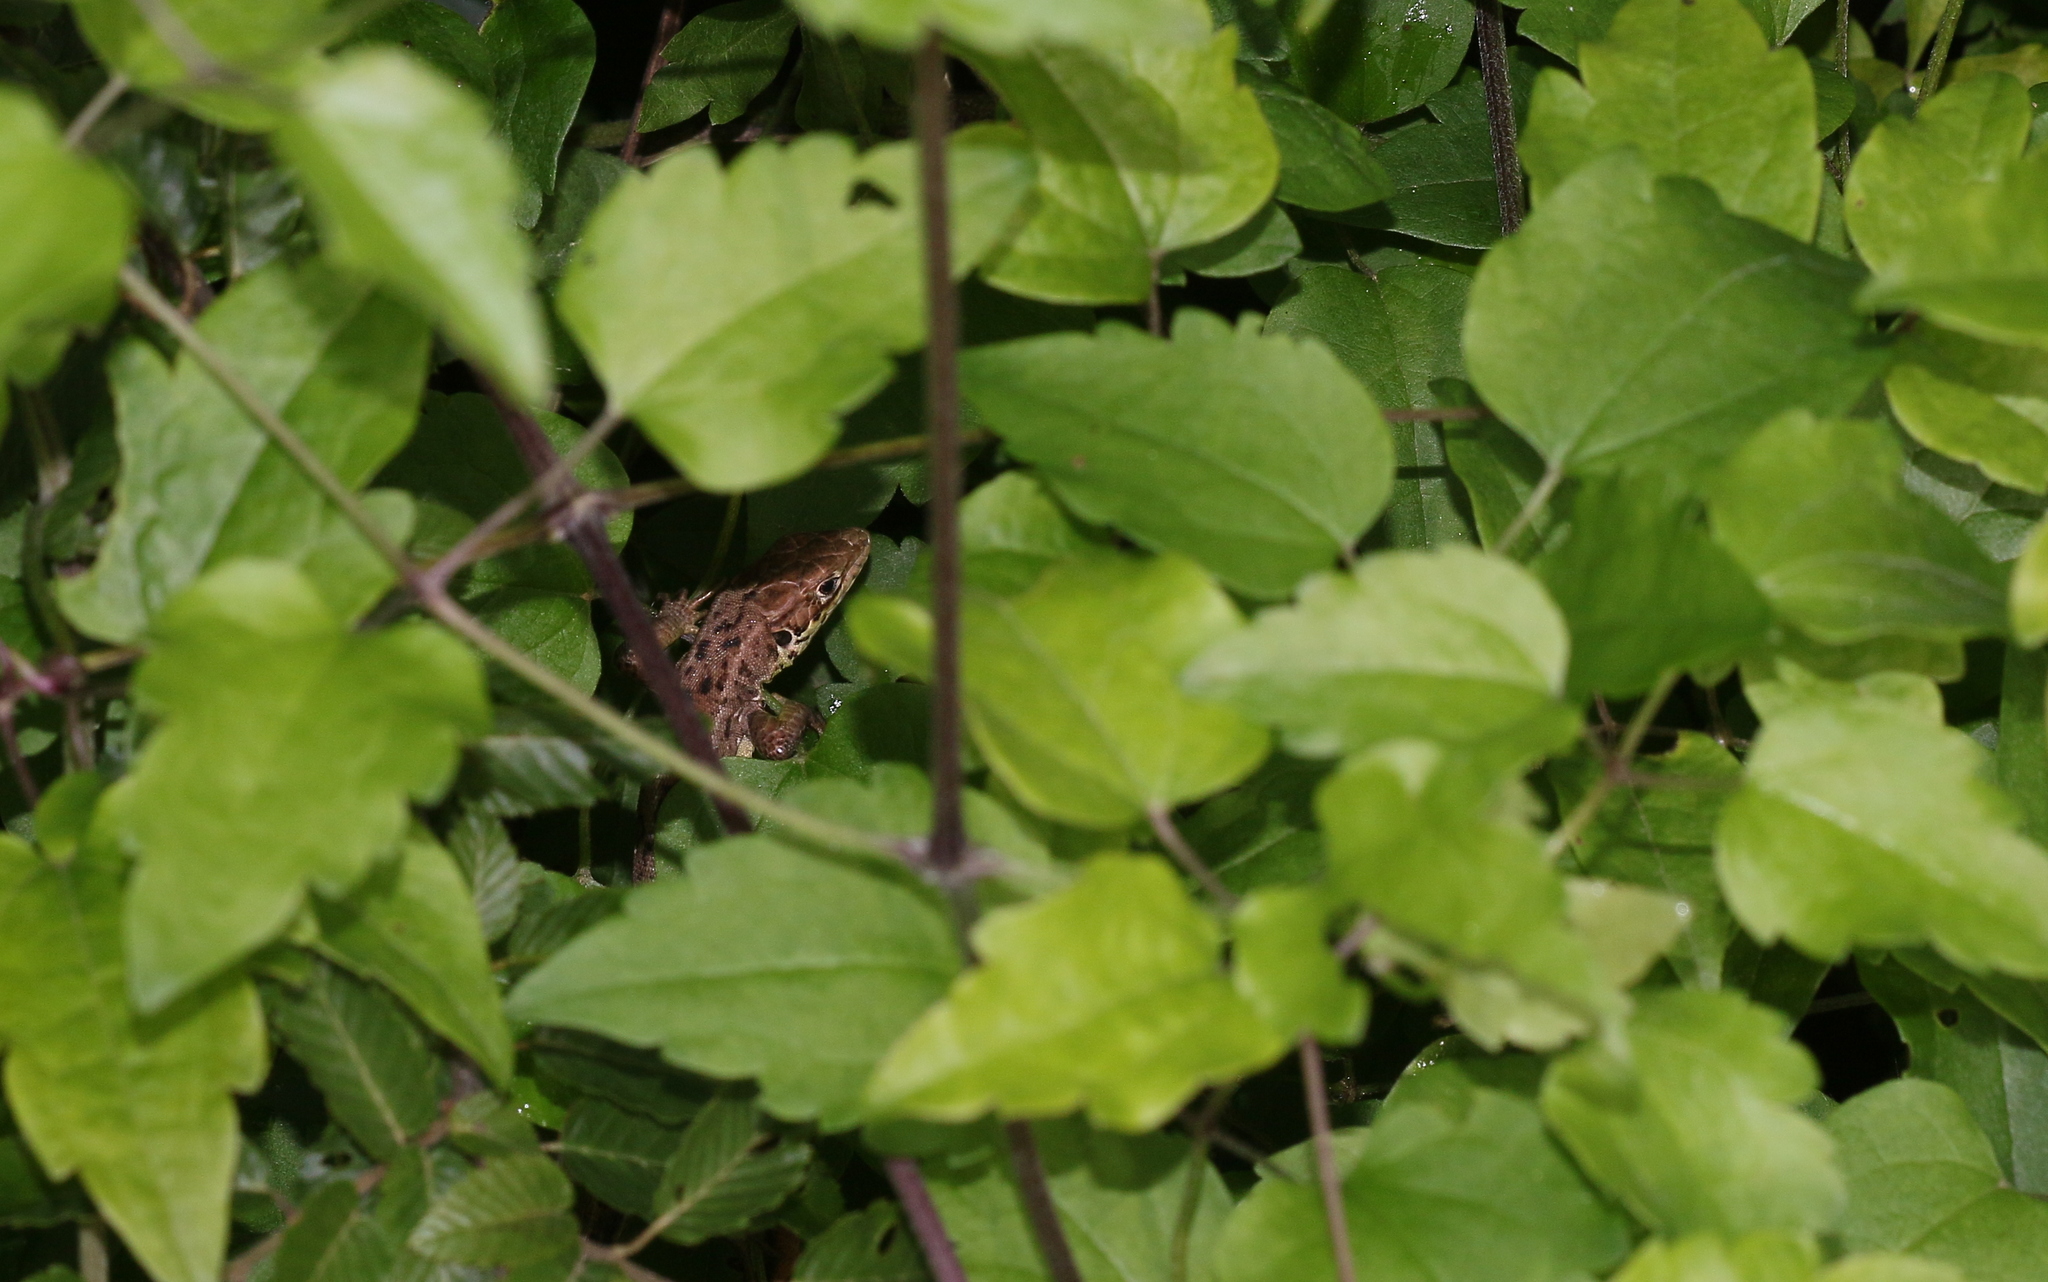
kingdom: Animalia
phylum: Chordata
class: Squamata
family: Lacertidae
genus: Lacerta
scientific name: Lacerta viridis
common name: European green lizard
